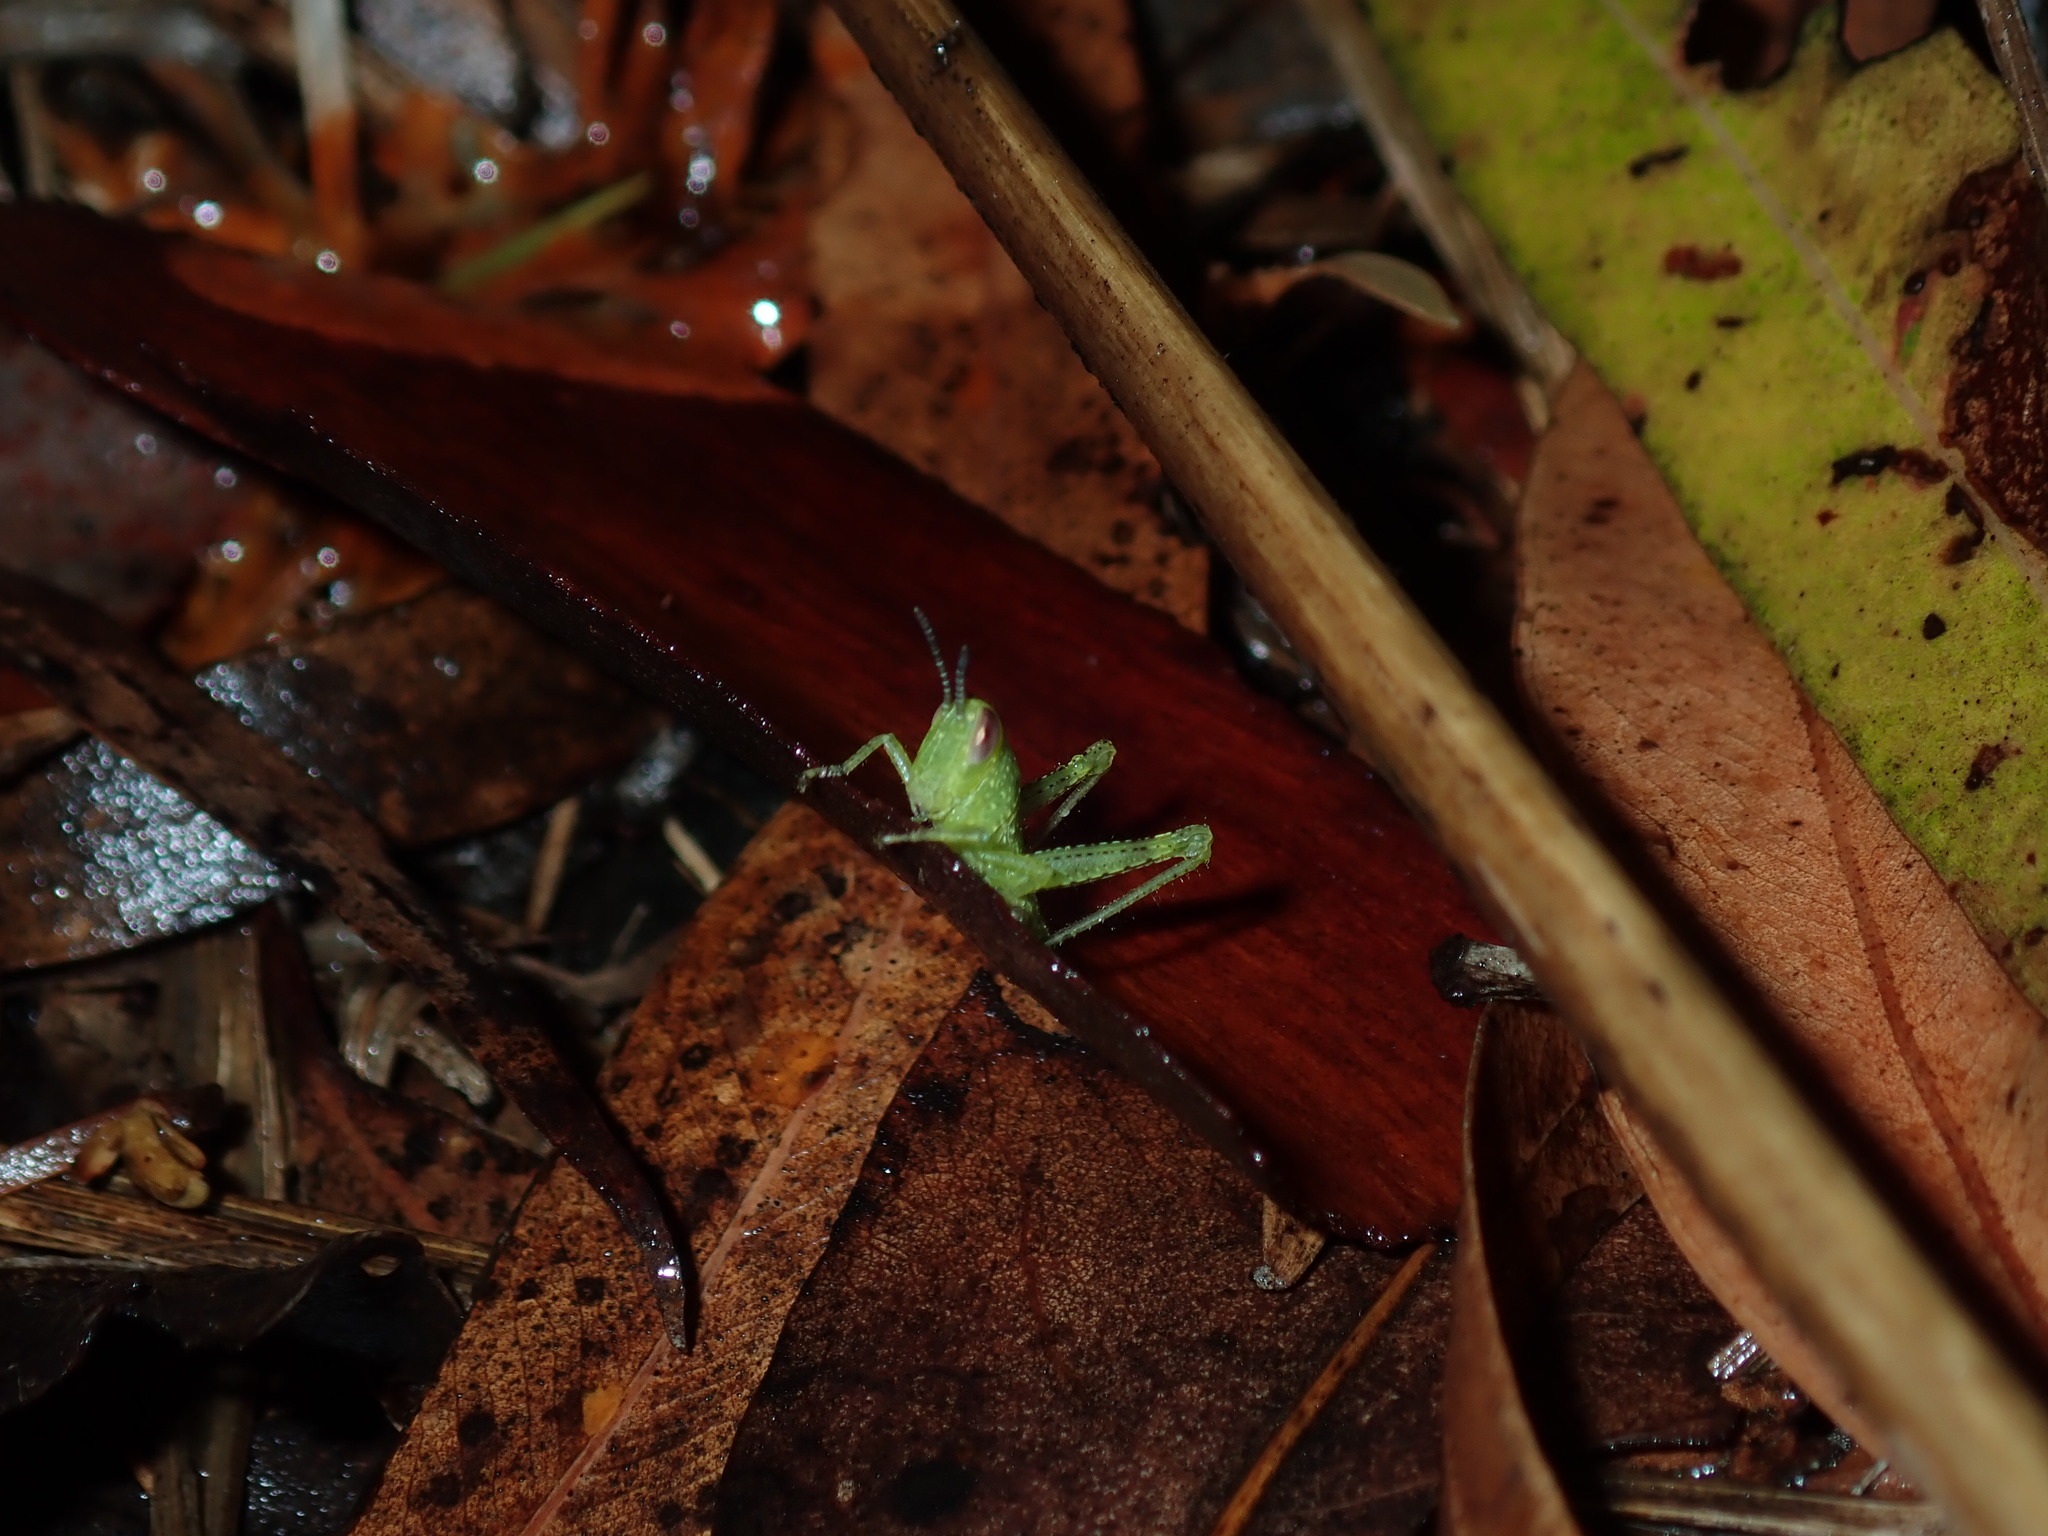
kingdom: Animalia
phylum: Arthropoda
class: Insecta
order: Orthoptera
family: Acrididae
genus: Valanga
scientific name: Valanga irregularis
